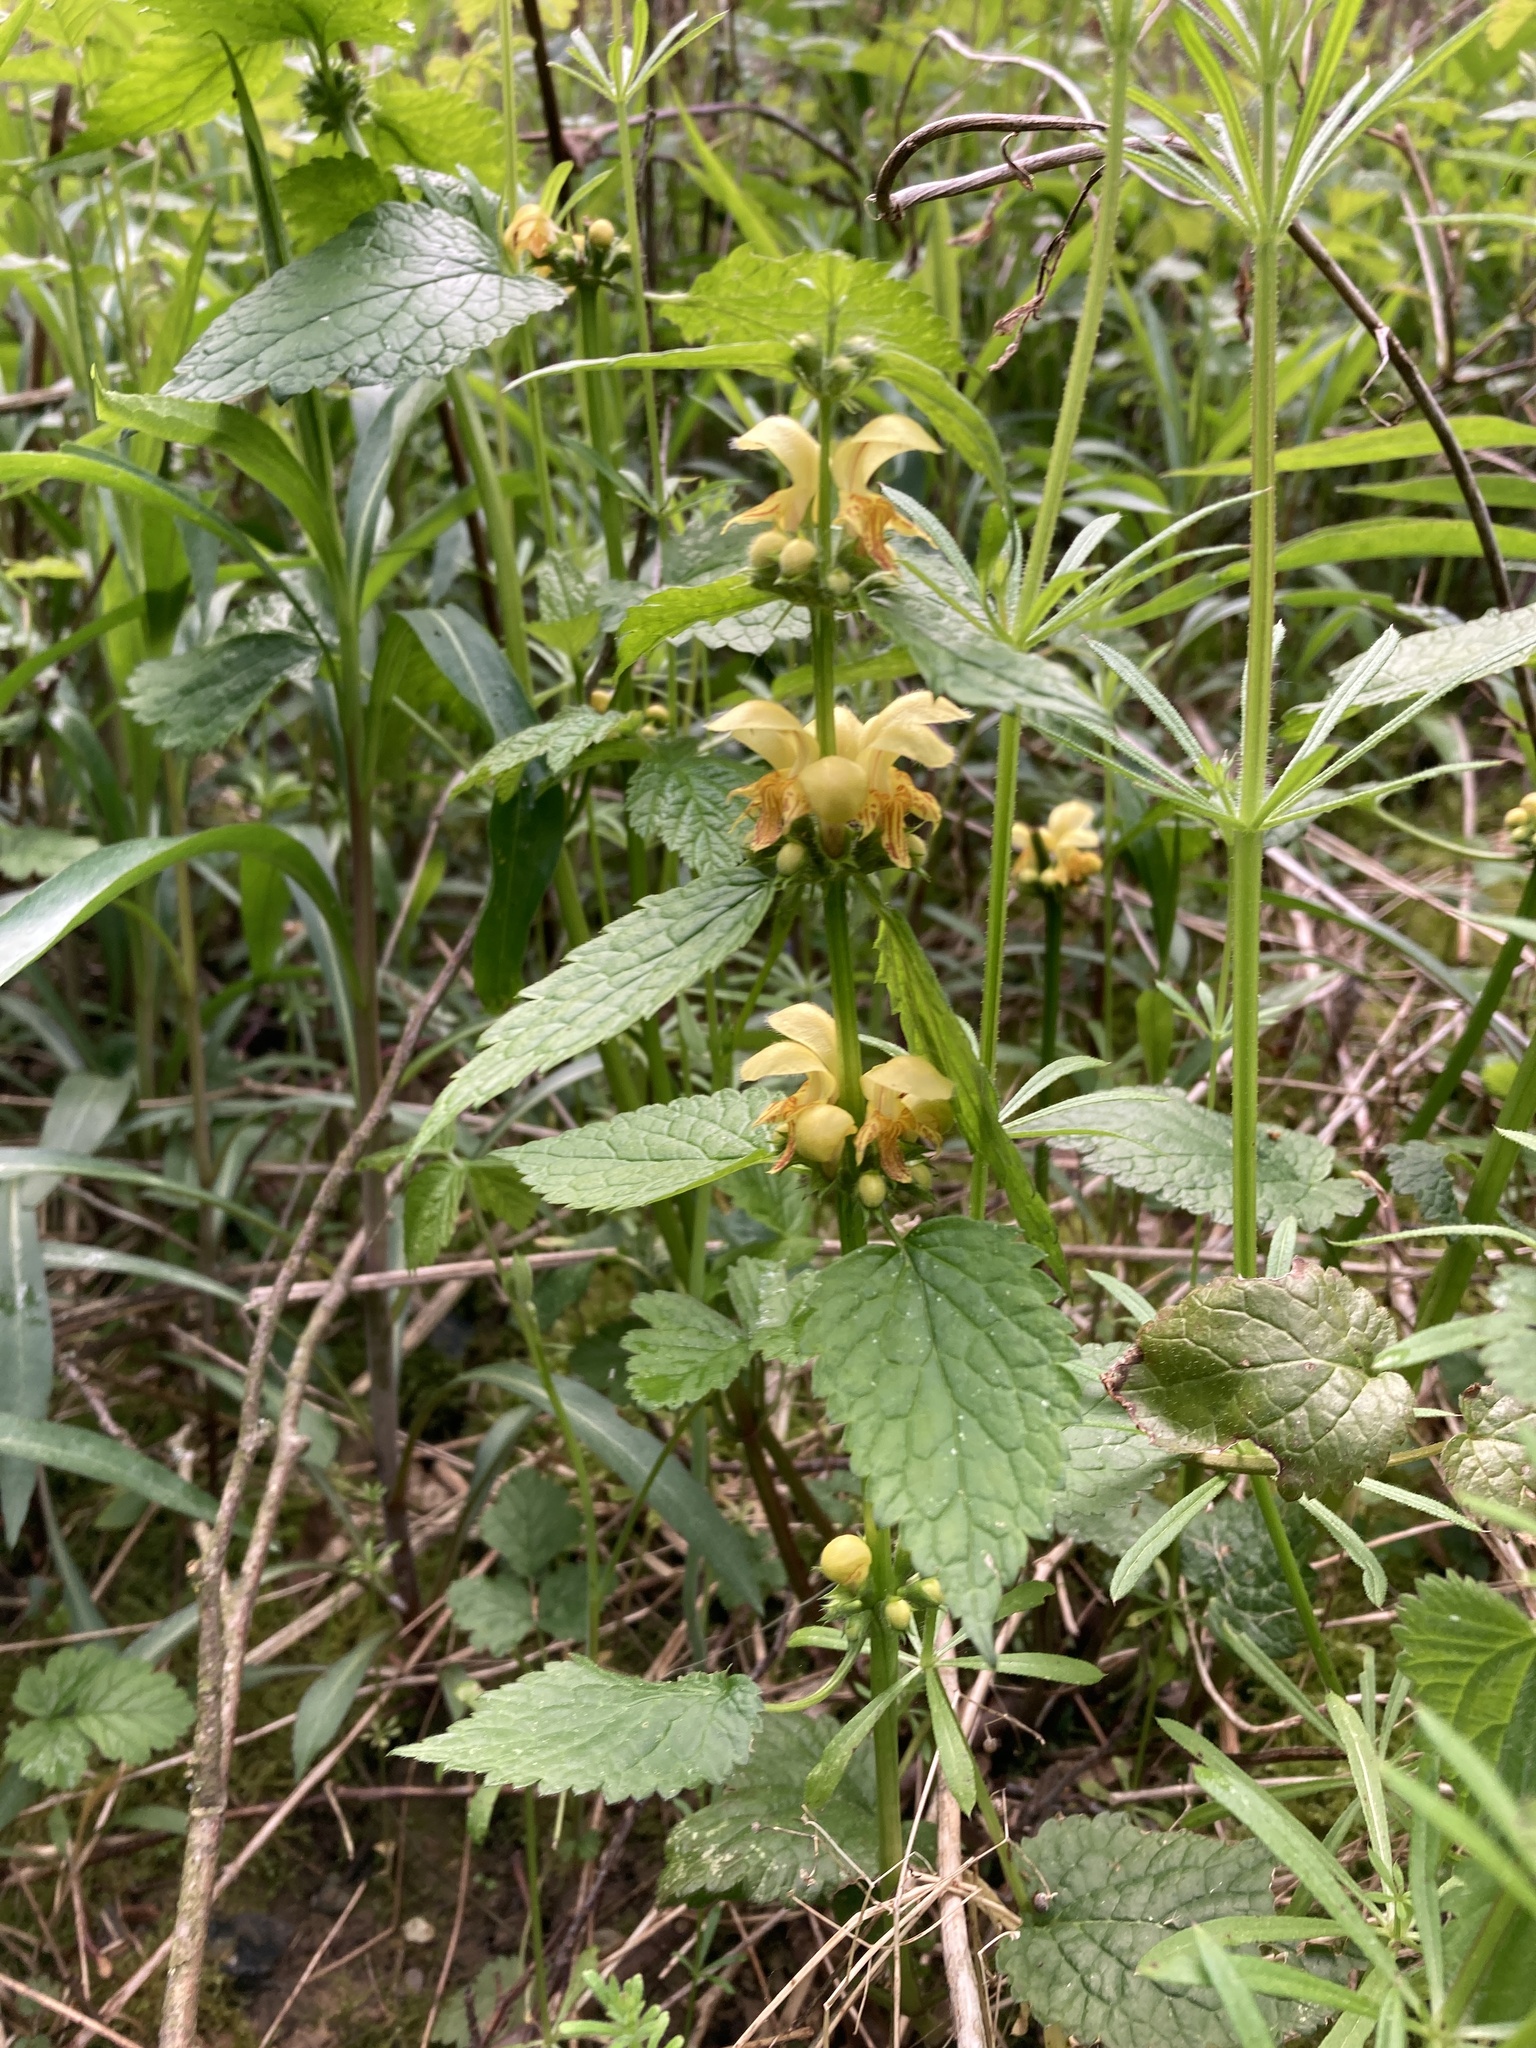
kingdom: Plantae
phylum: Tracheophyta
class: Magnoliopsida
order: Lamiales
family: Lamiaceae
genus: Lamium
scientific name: Lamium galeobdolon
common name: Yellow archangel
